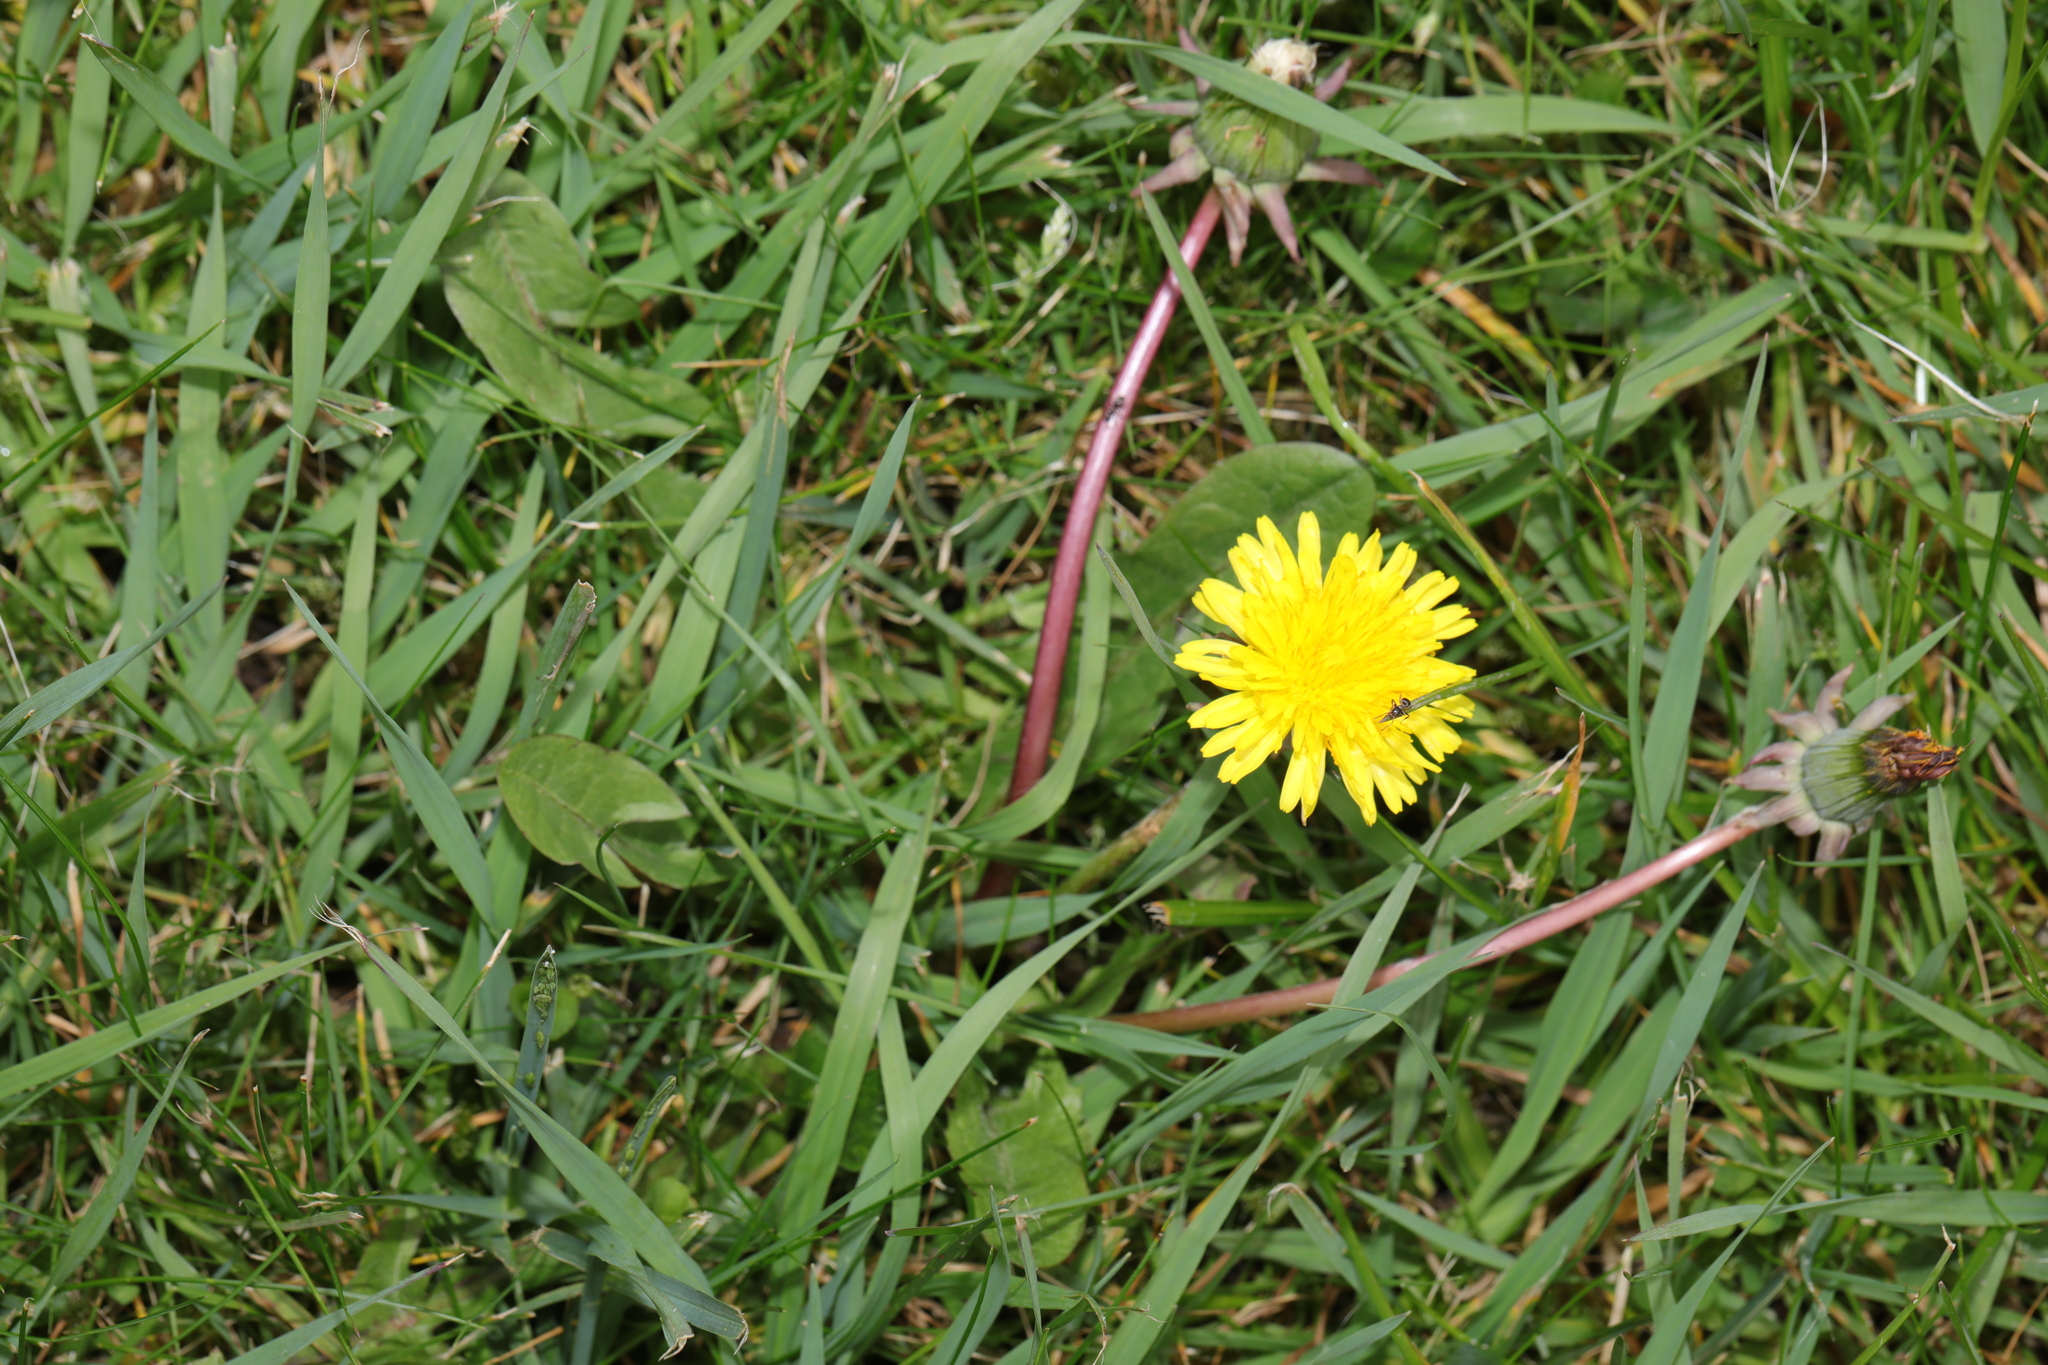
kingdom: Plantae
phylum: Tracheophyta
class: Magnoliopsida
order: Asterales
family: Asteraceae
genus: Taraxacum
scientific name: Taraxacum officinale
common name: Common dandelion
